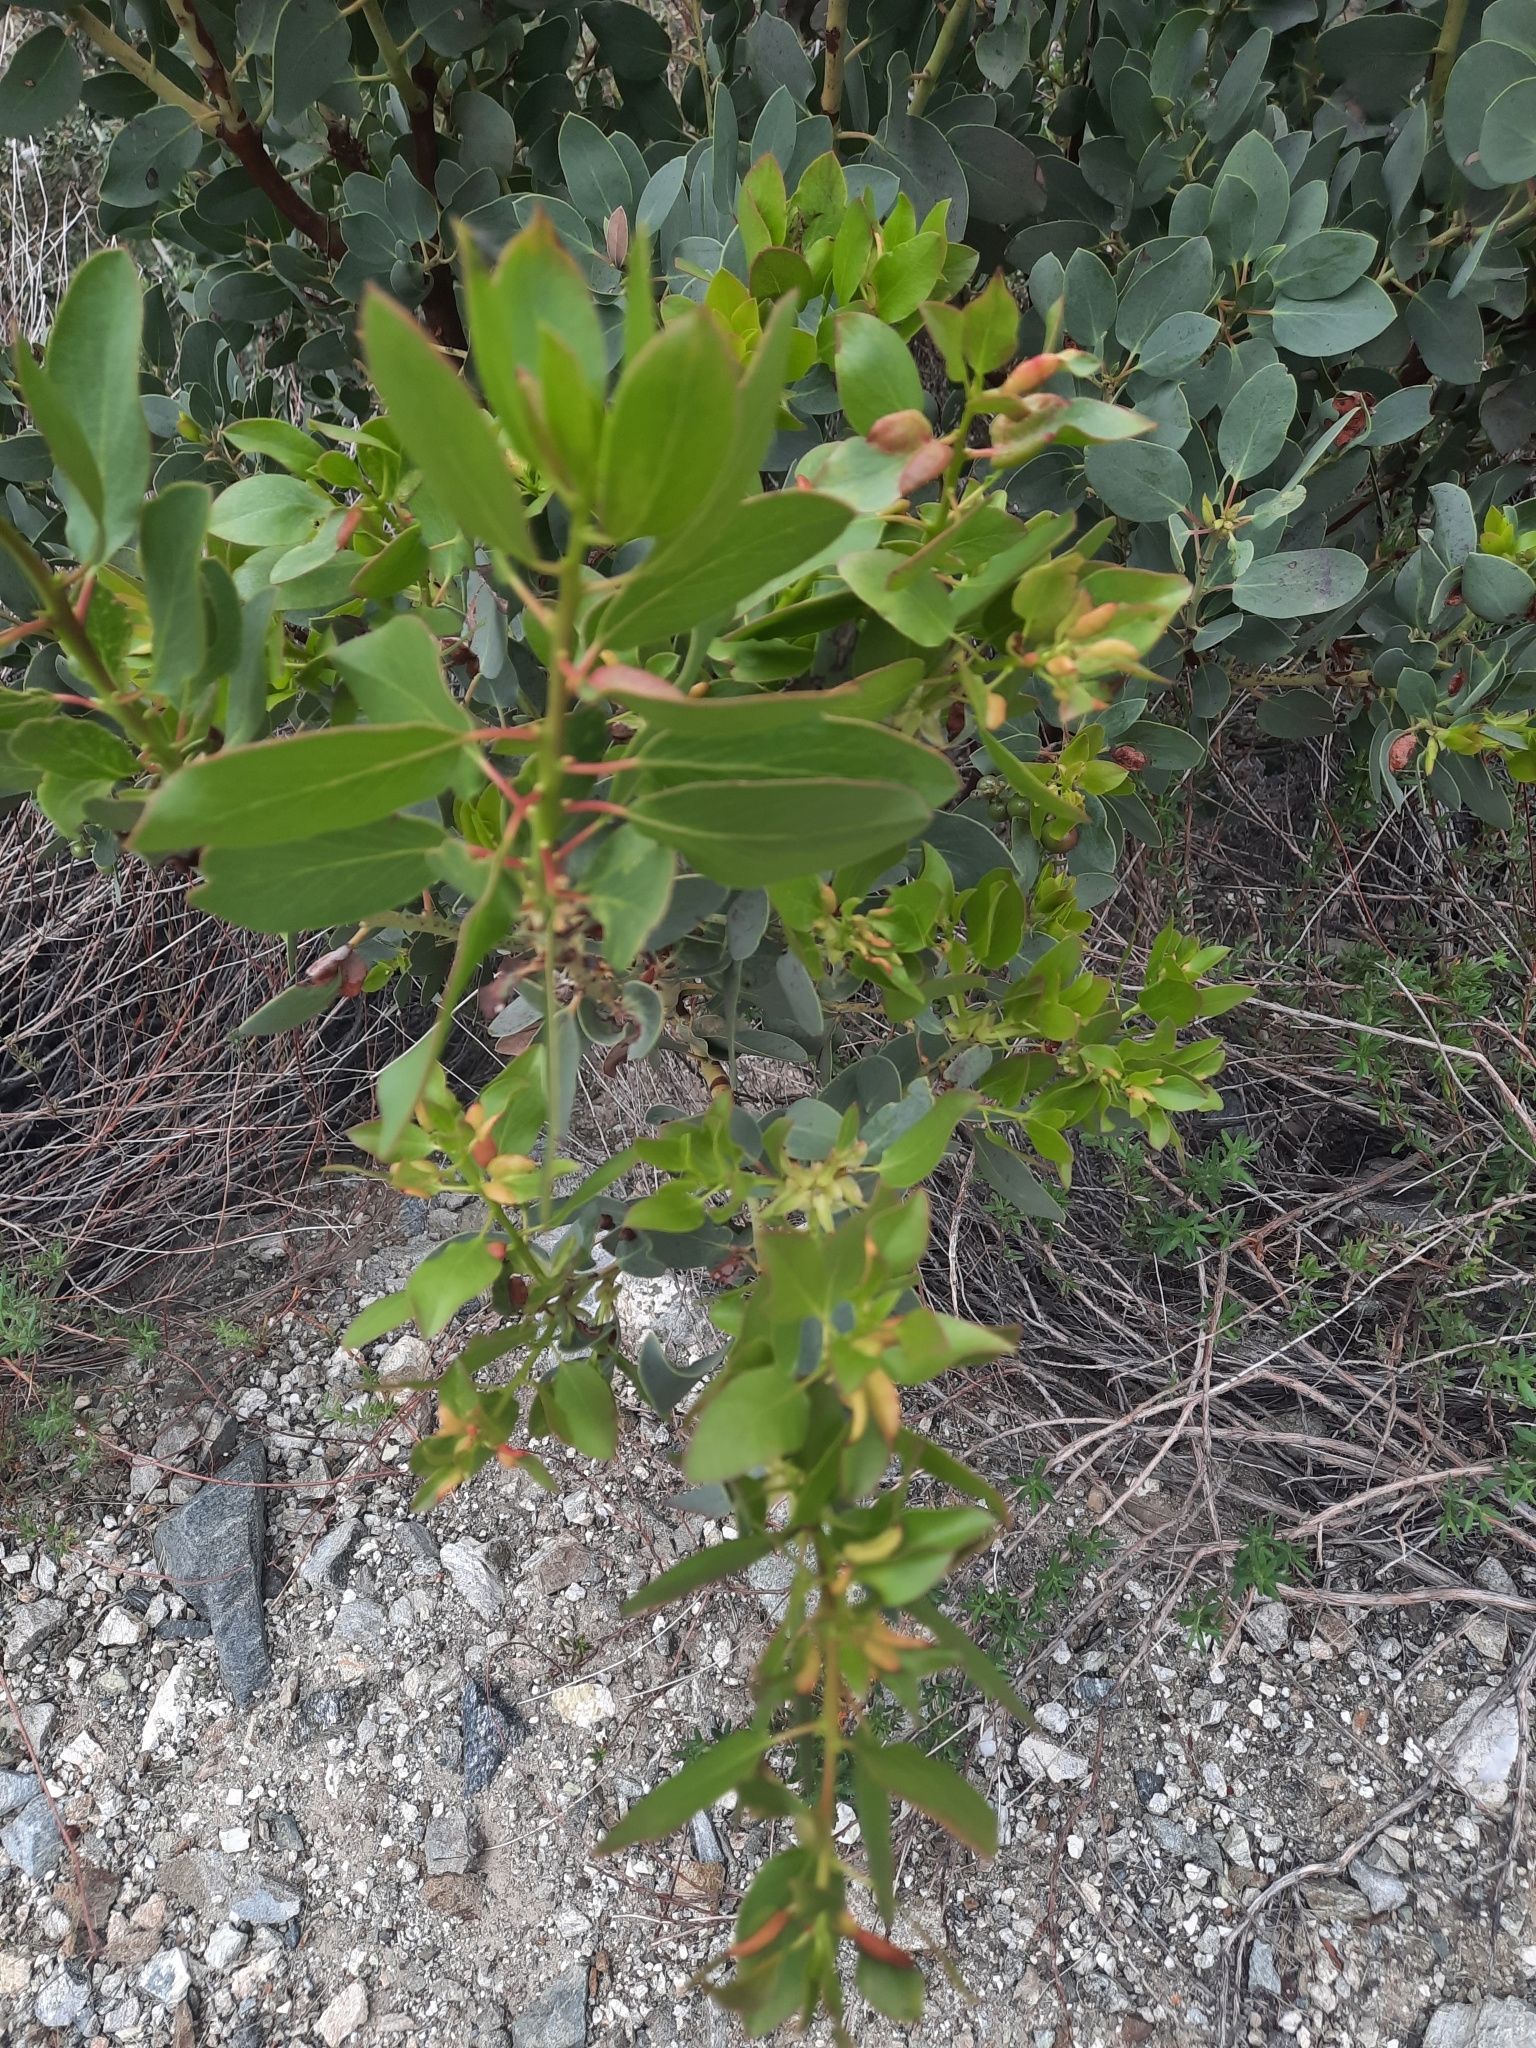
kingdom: Plantae
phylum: Tracheophyta
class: Magnoliopsida
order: Ericales
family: Ericaceae
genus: Arctostaphylos
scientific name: Arctostaphylos glauca
